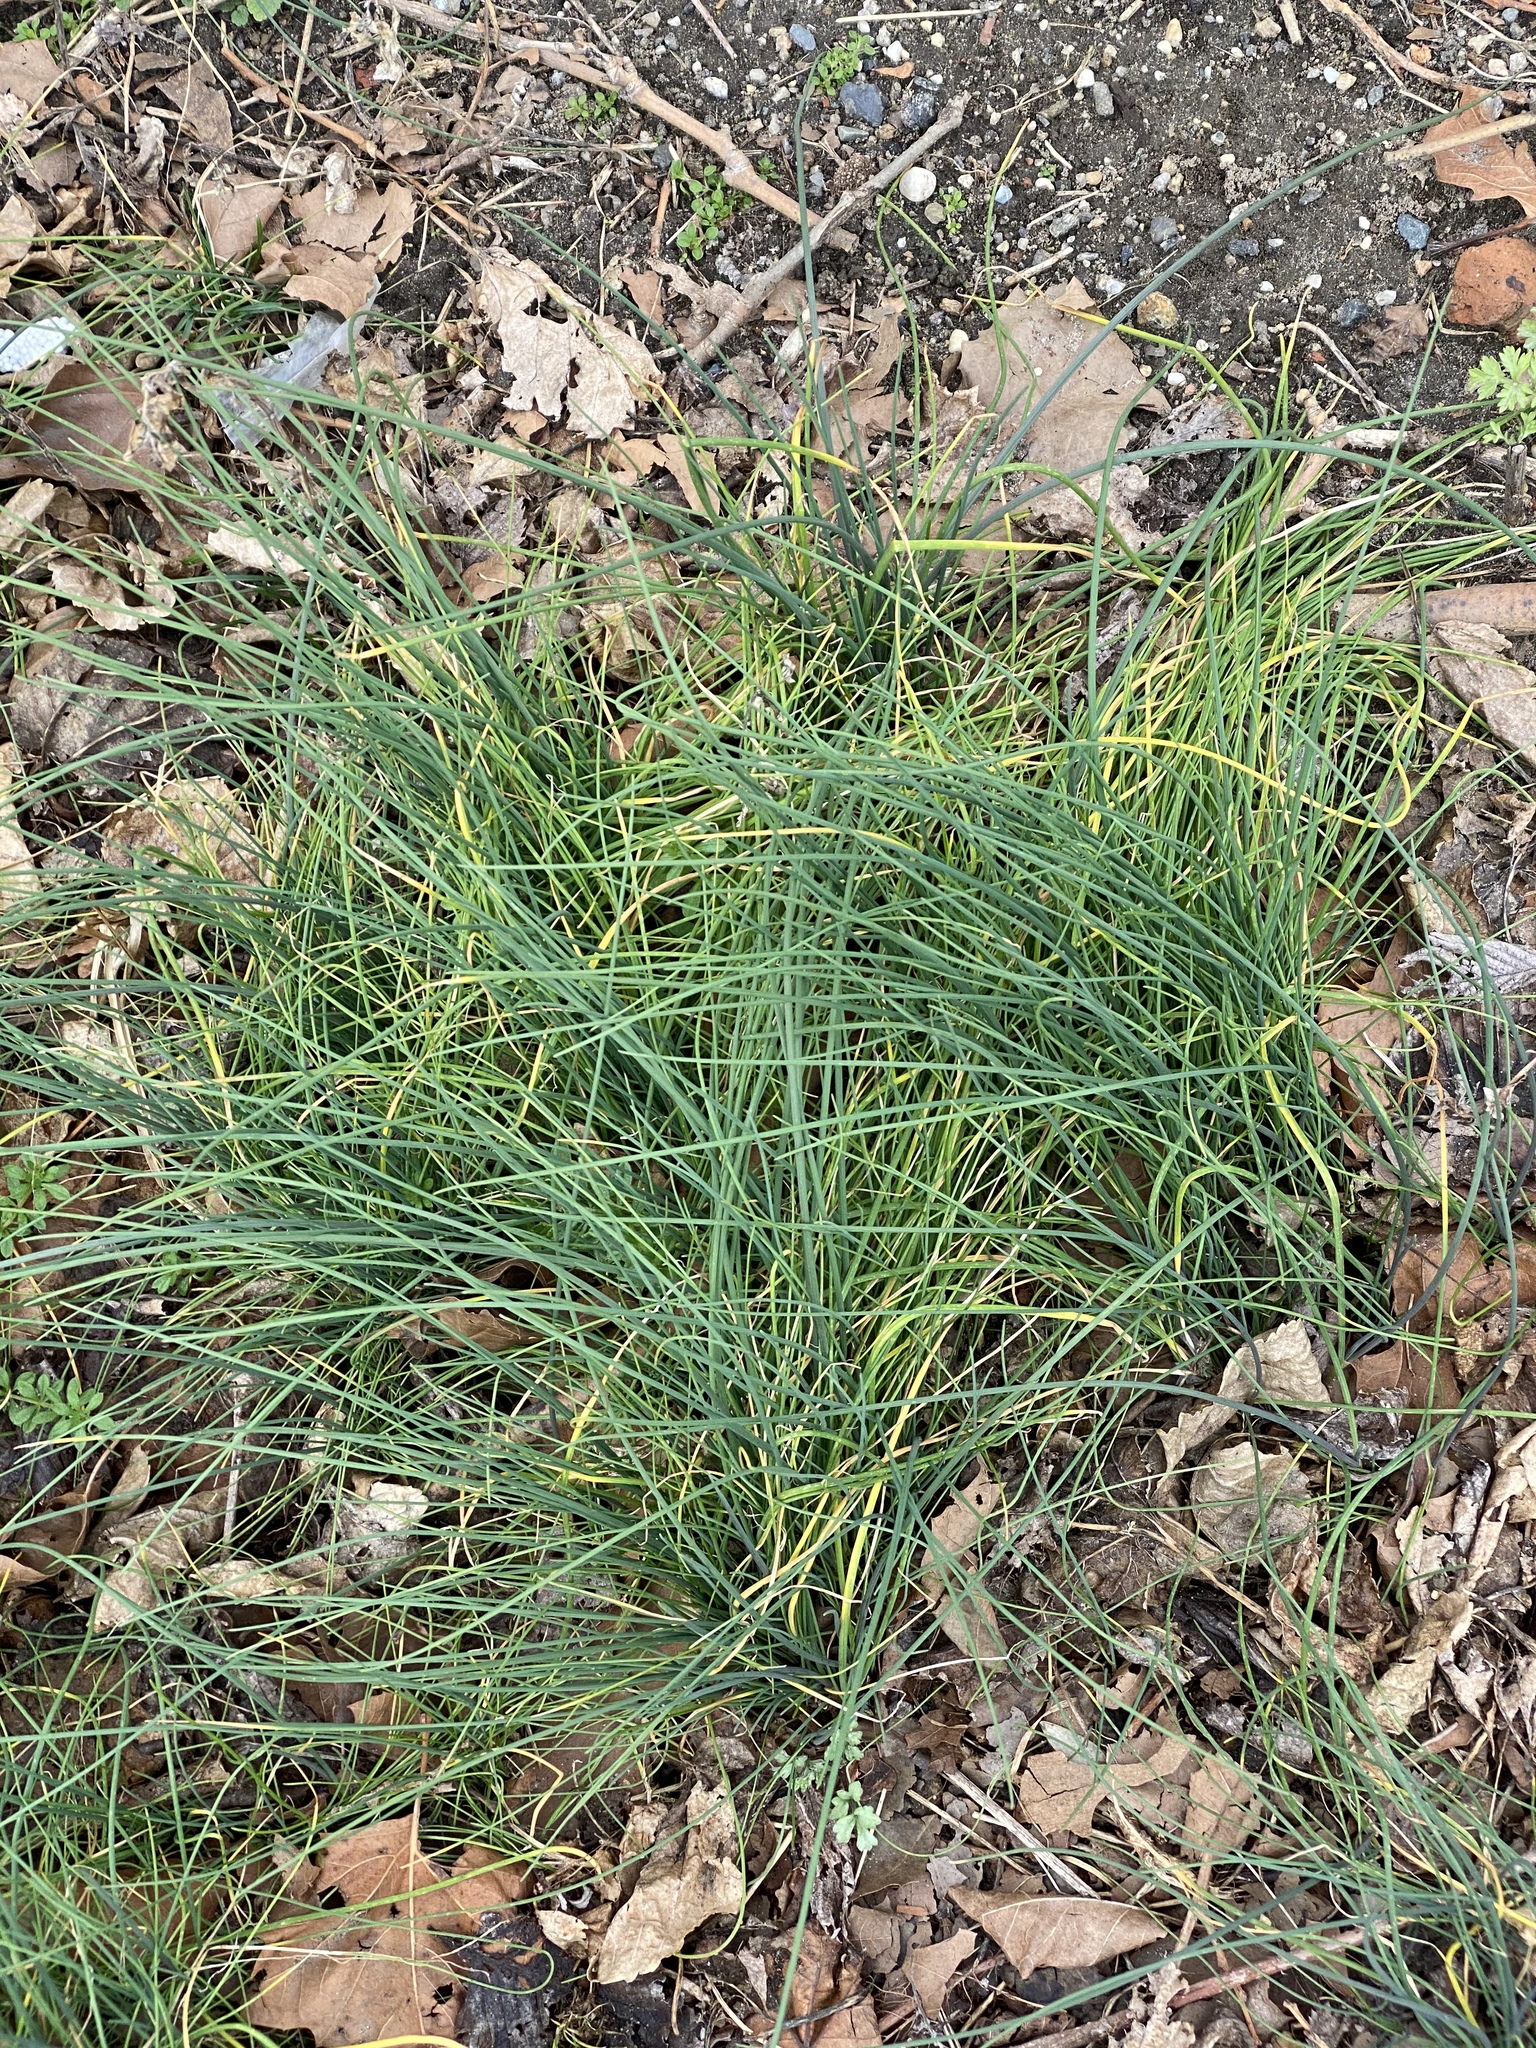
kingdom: Plantae
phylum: Tracheophyta
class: Liliopsida
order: Asparagales
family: Amaryllidaceae
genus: Allium
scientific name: Allium vineale
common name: Crow garlic
